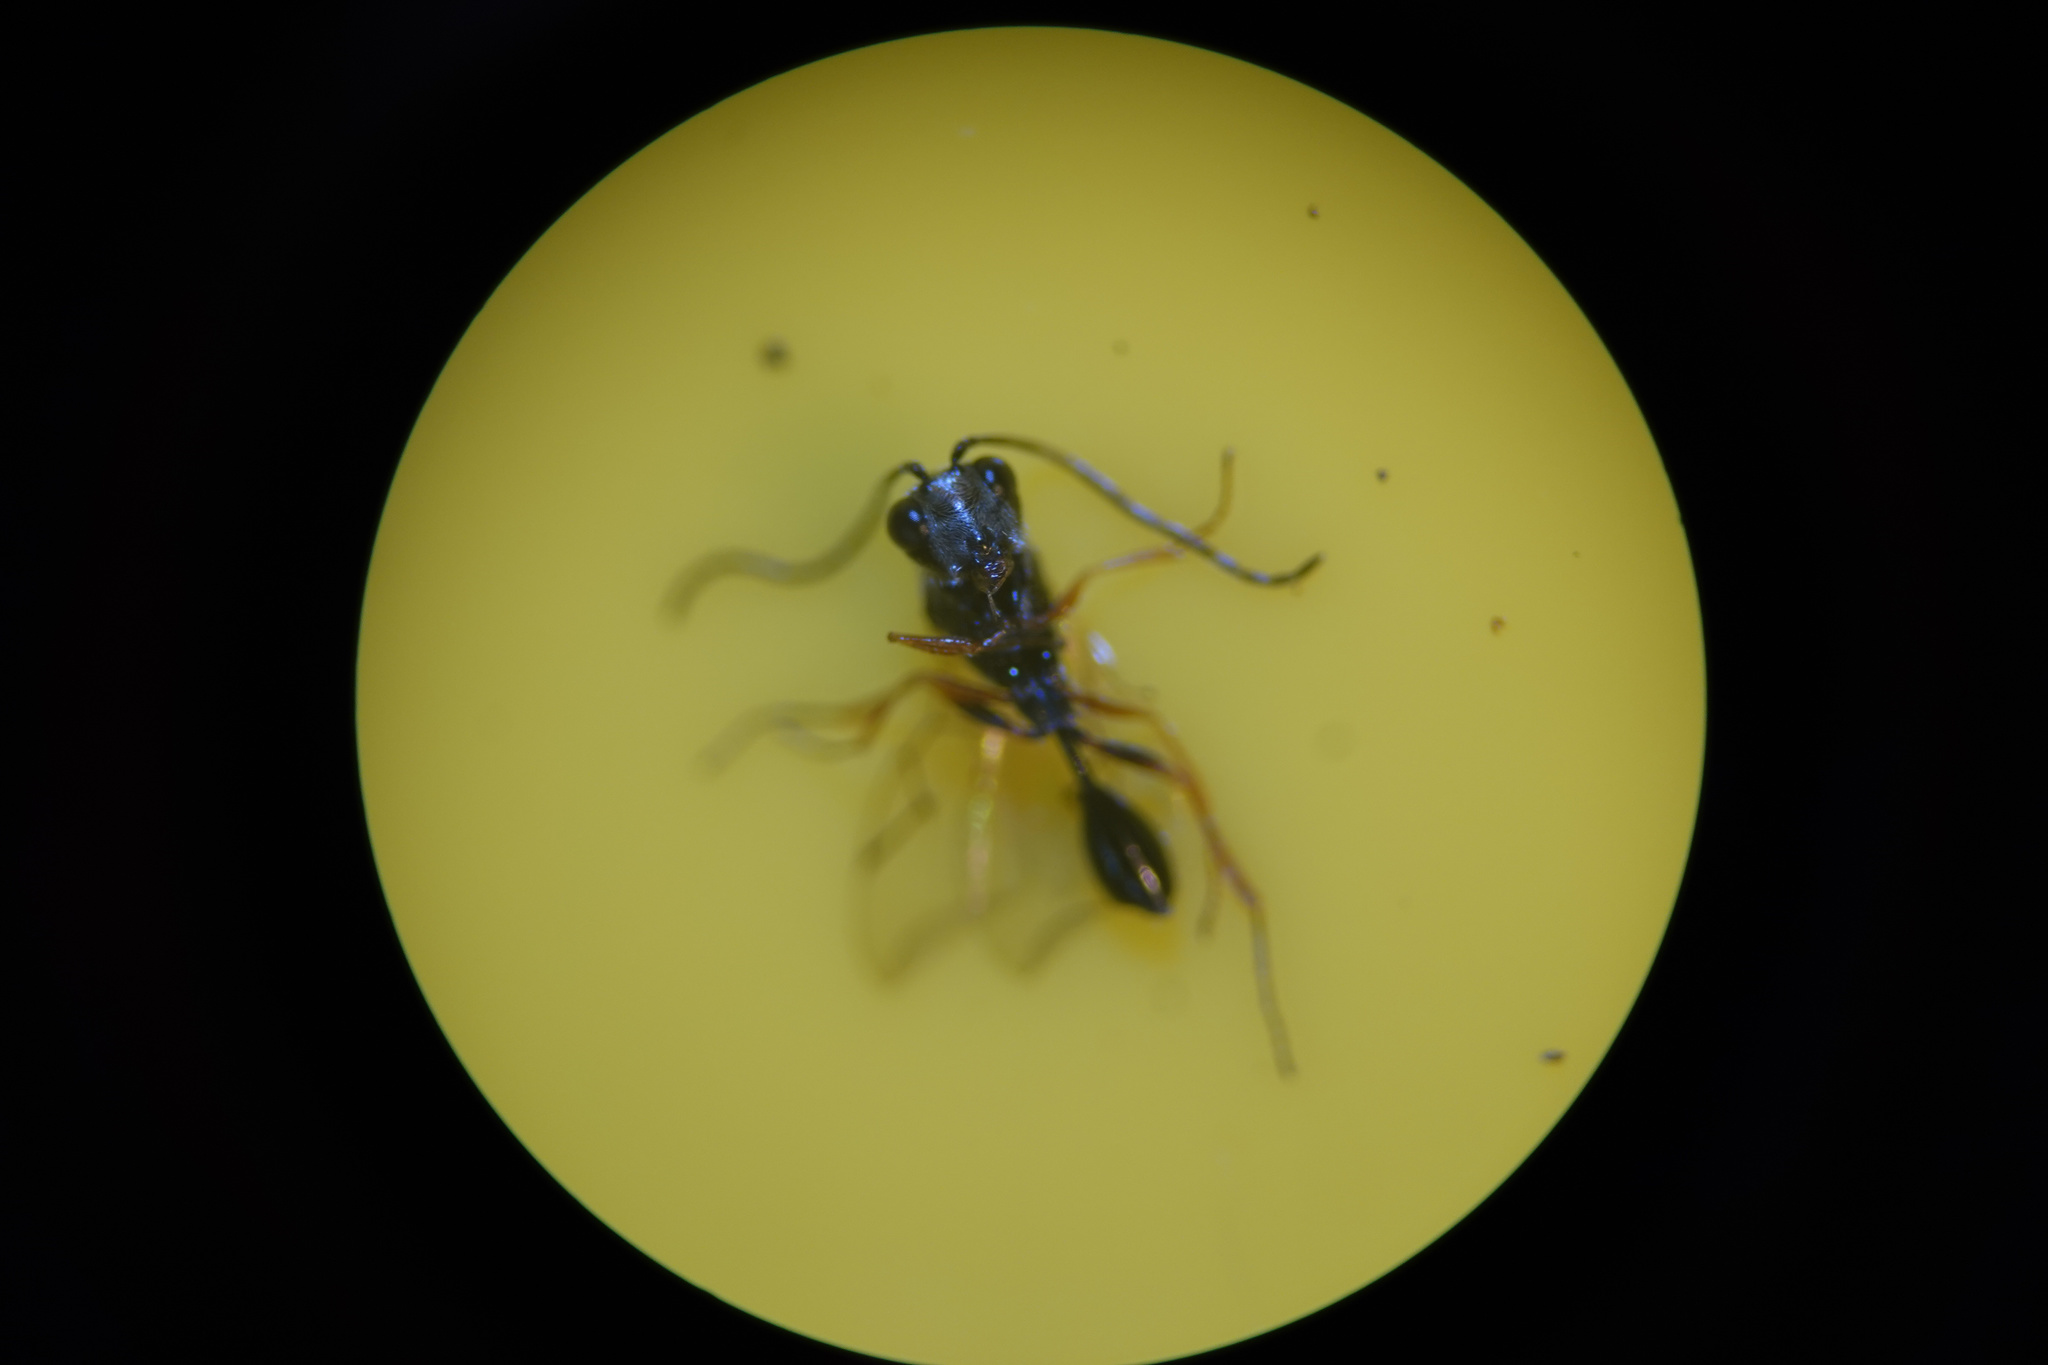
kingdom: Animalia
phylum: Arthropoda
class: Insecta
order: Hymenoptera
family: Figitidae
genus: Anacharis
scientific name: Anacharis zealandica
